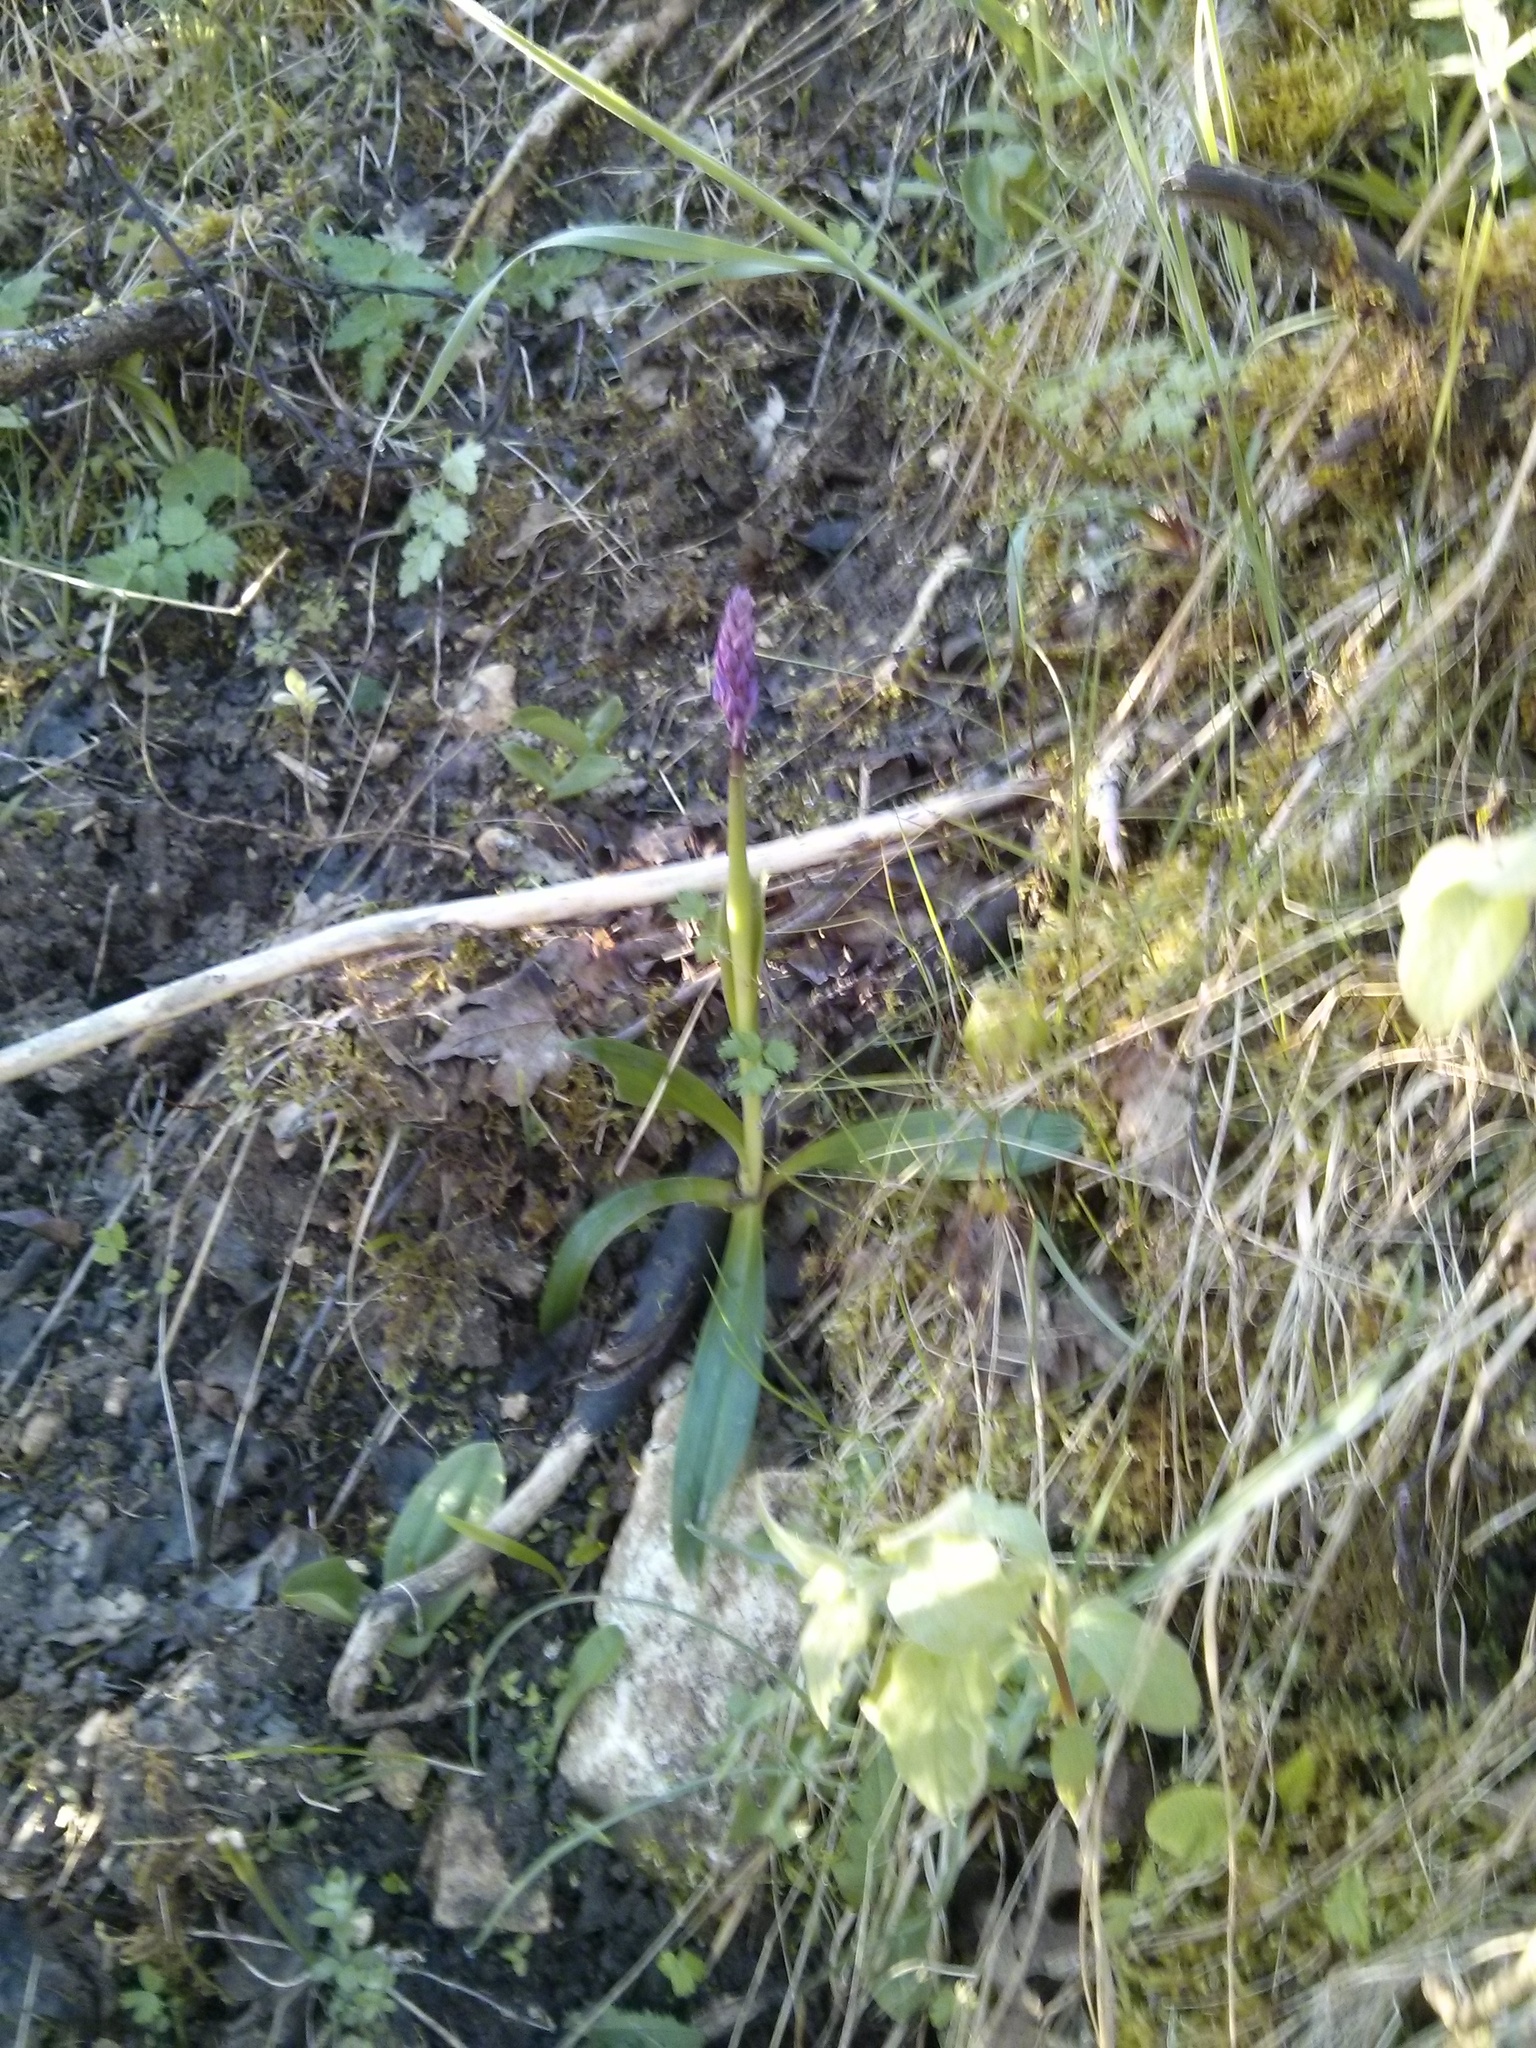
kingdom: Plantae
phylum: Tracheophyta
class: Liliopsida
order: Asparagales
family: Orchidaceae
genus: Neotinea
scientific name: Neotinea tridentata
